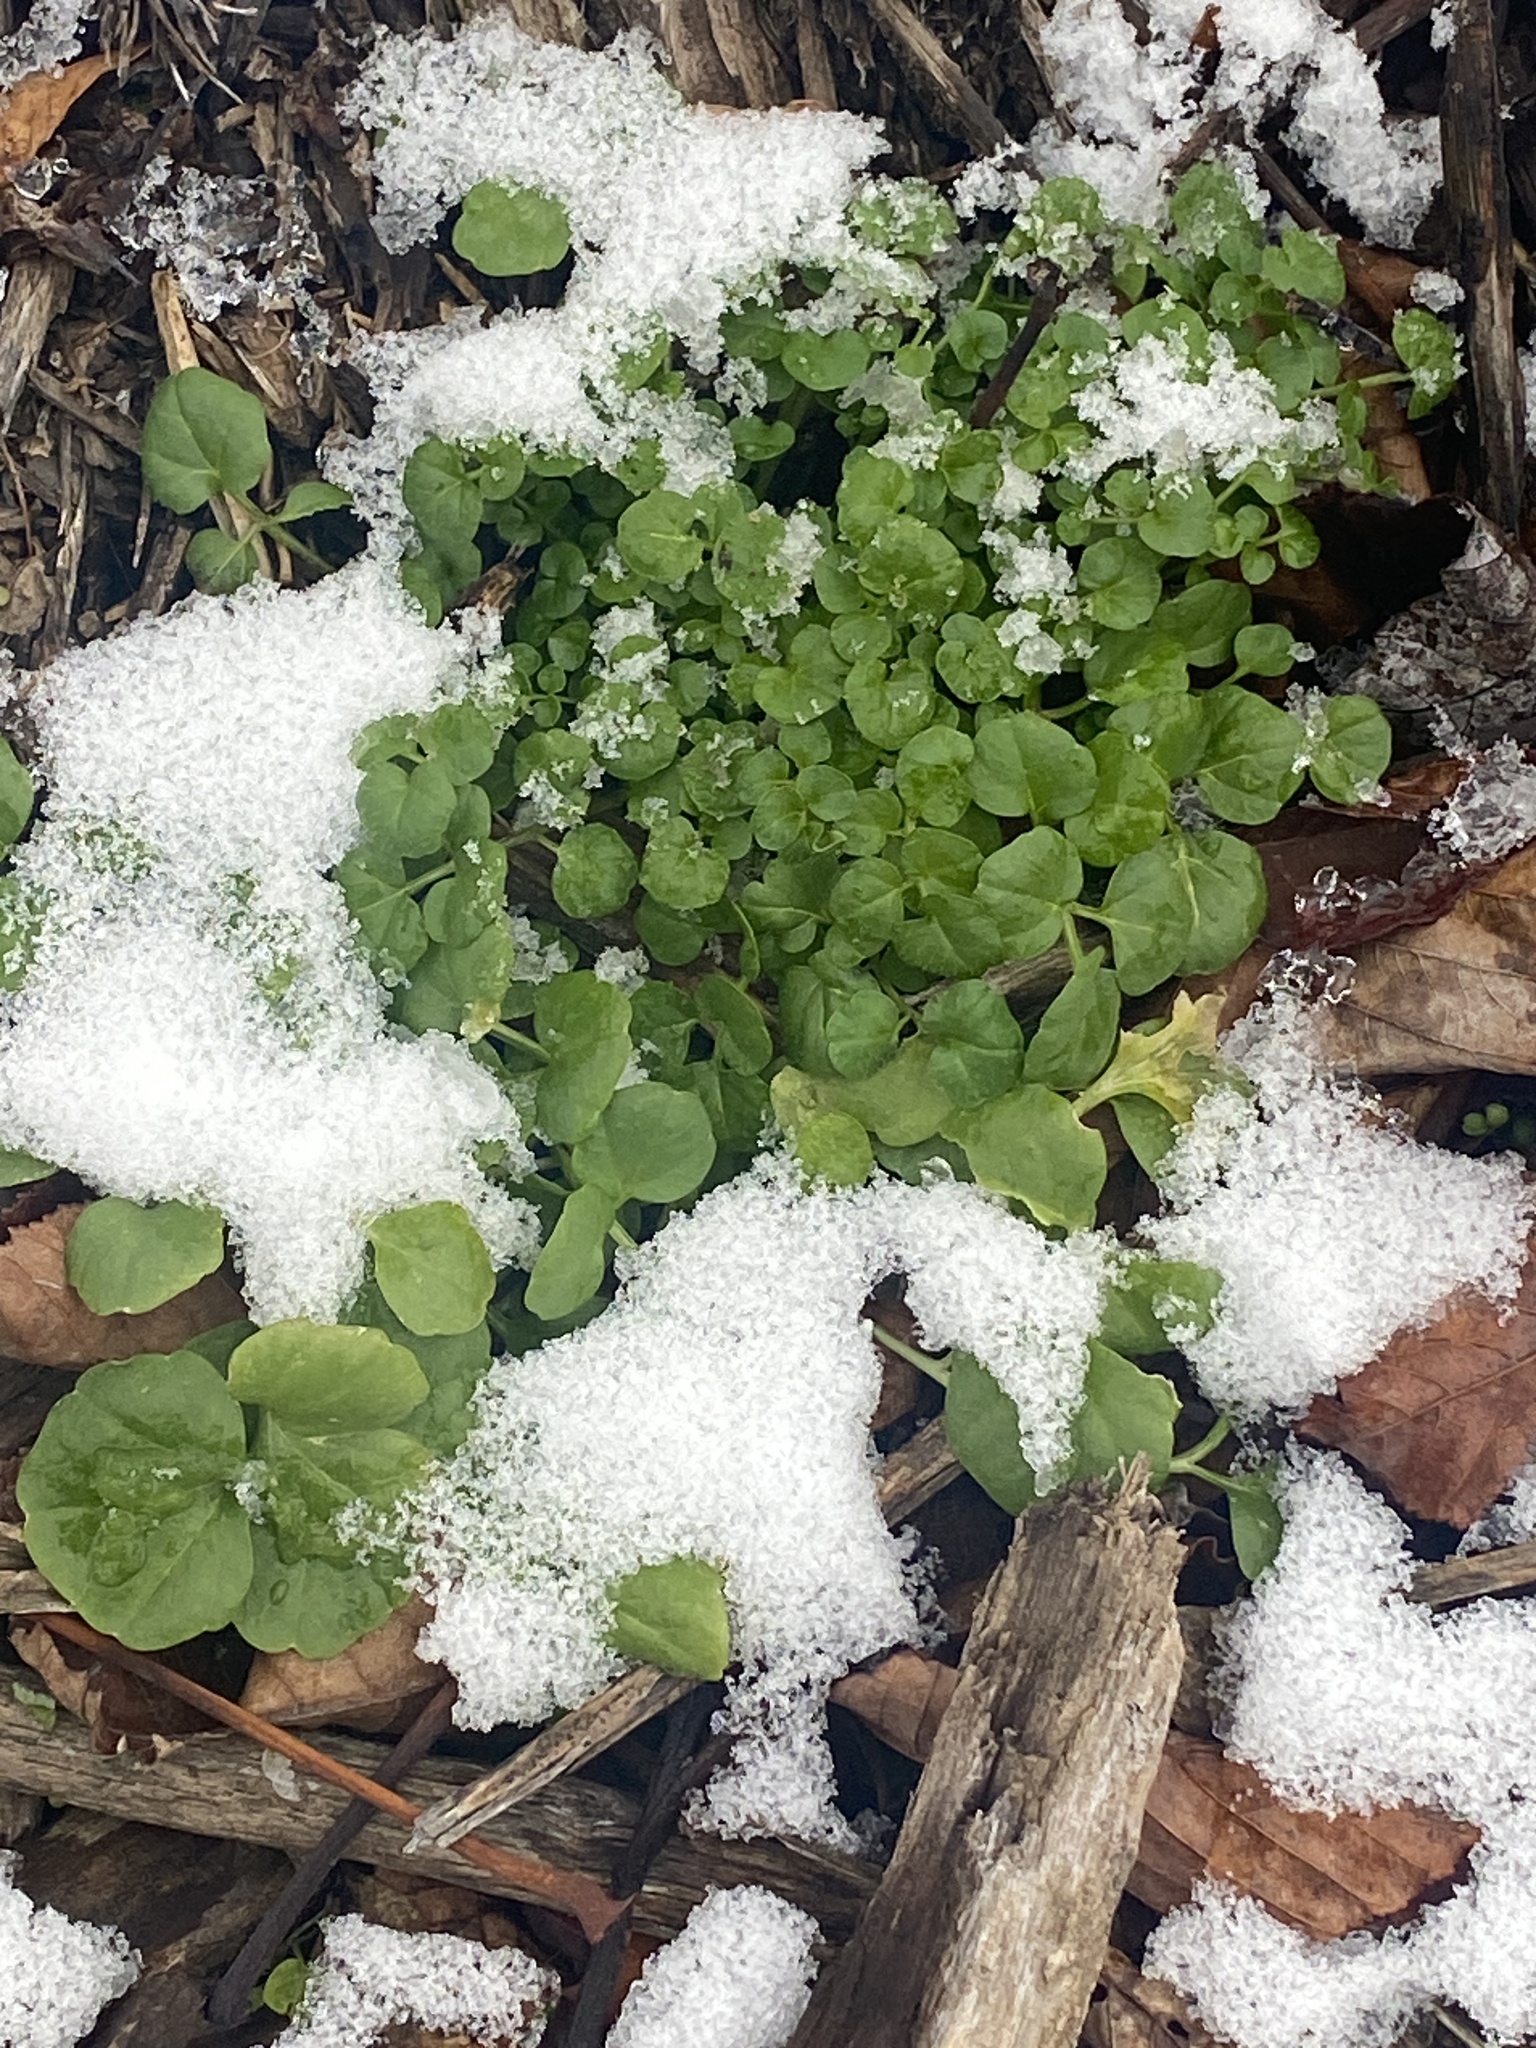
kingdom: Plantae
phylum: Tracheophyta
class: Magnoliopsida
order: Brassicales
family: Brassicaceae
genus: Cardamine
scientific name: Cardamine hirsuta
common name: Hairy bittercress
